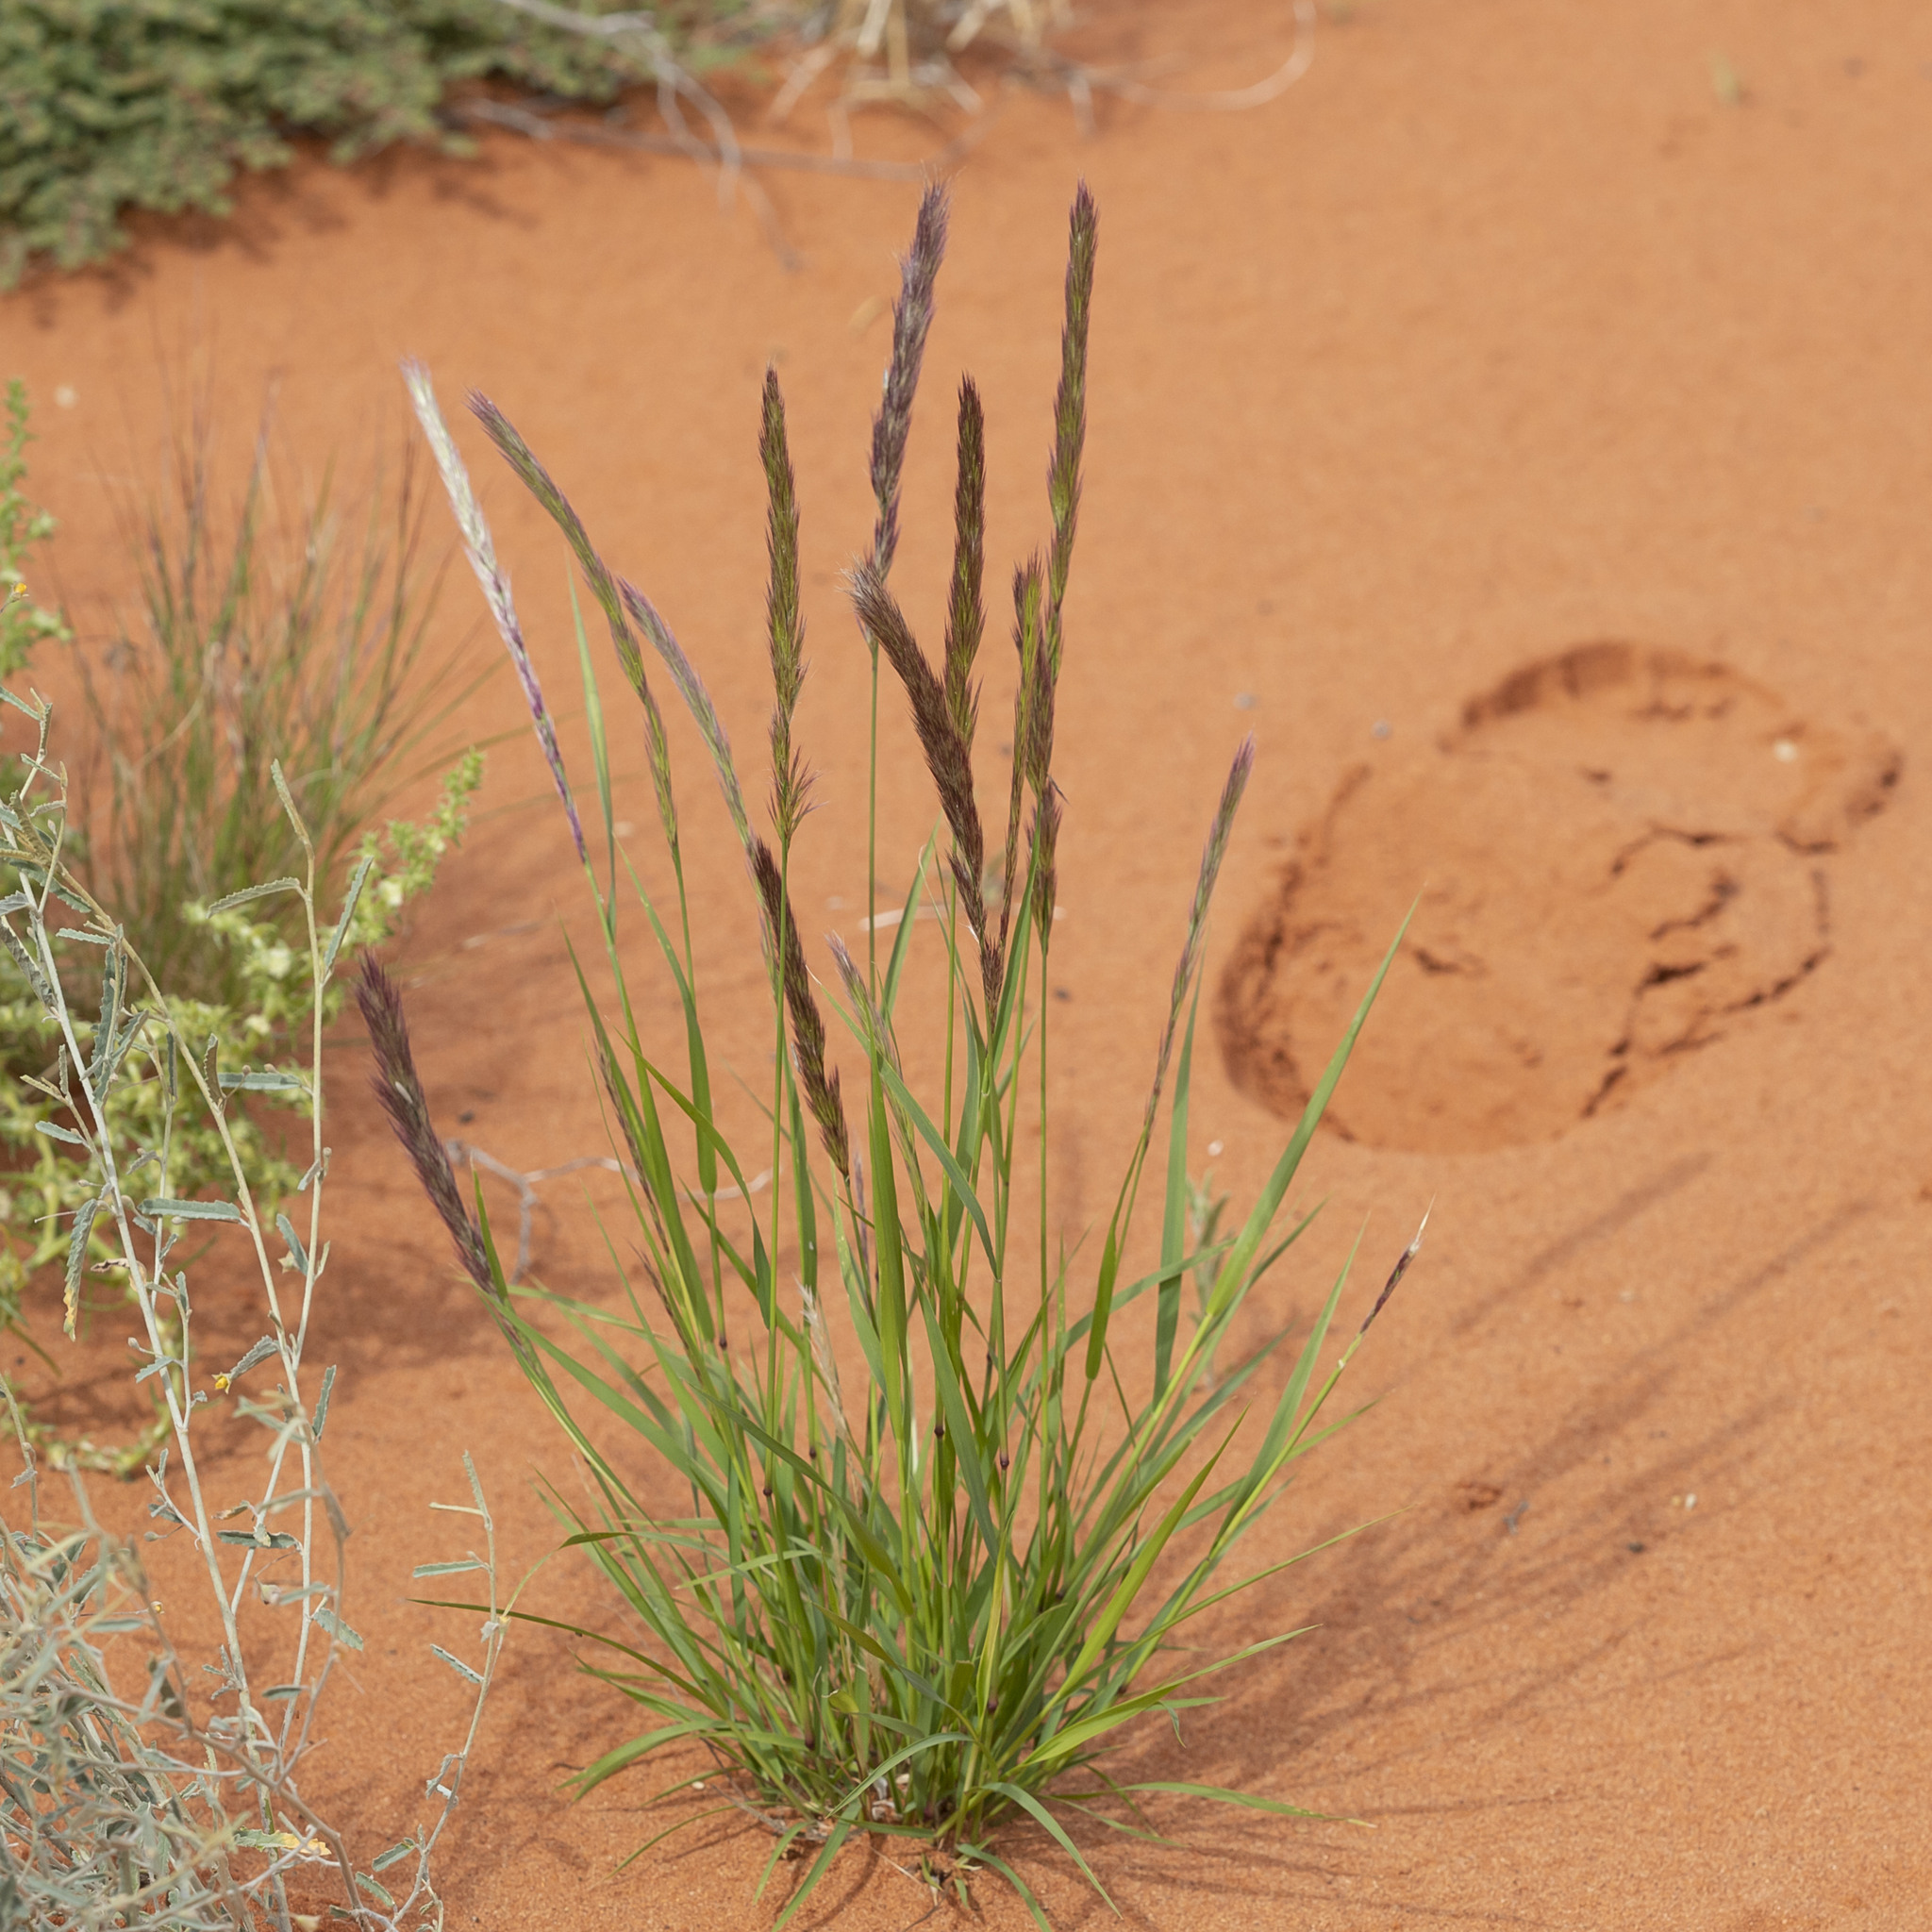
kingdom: Plantae
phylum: Tracheophyta
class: Liliopsida
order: Poales
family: Poaceae
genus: Triraphis
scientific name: Triraphis mollis
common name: Purple needlegrass
